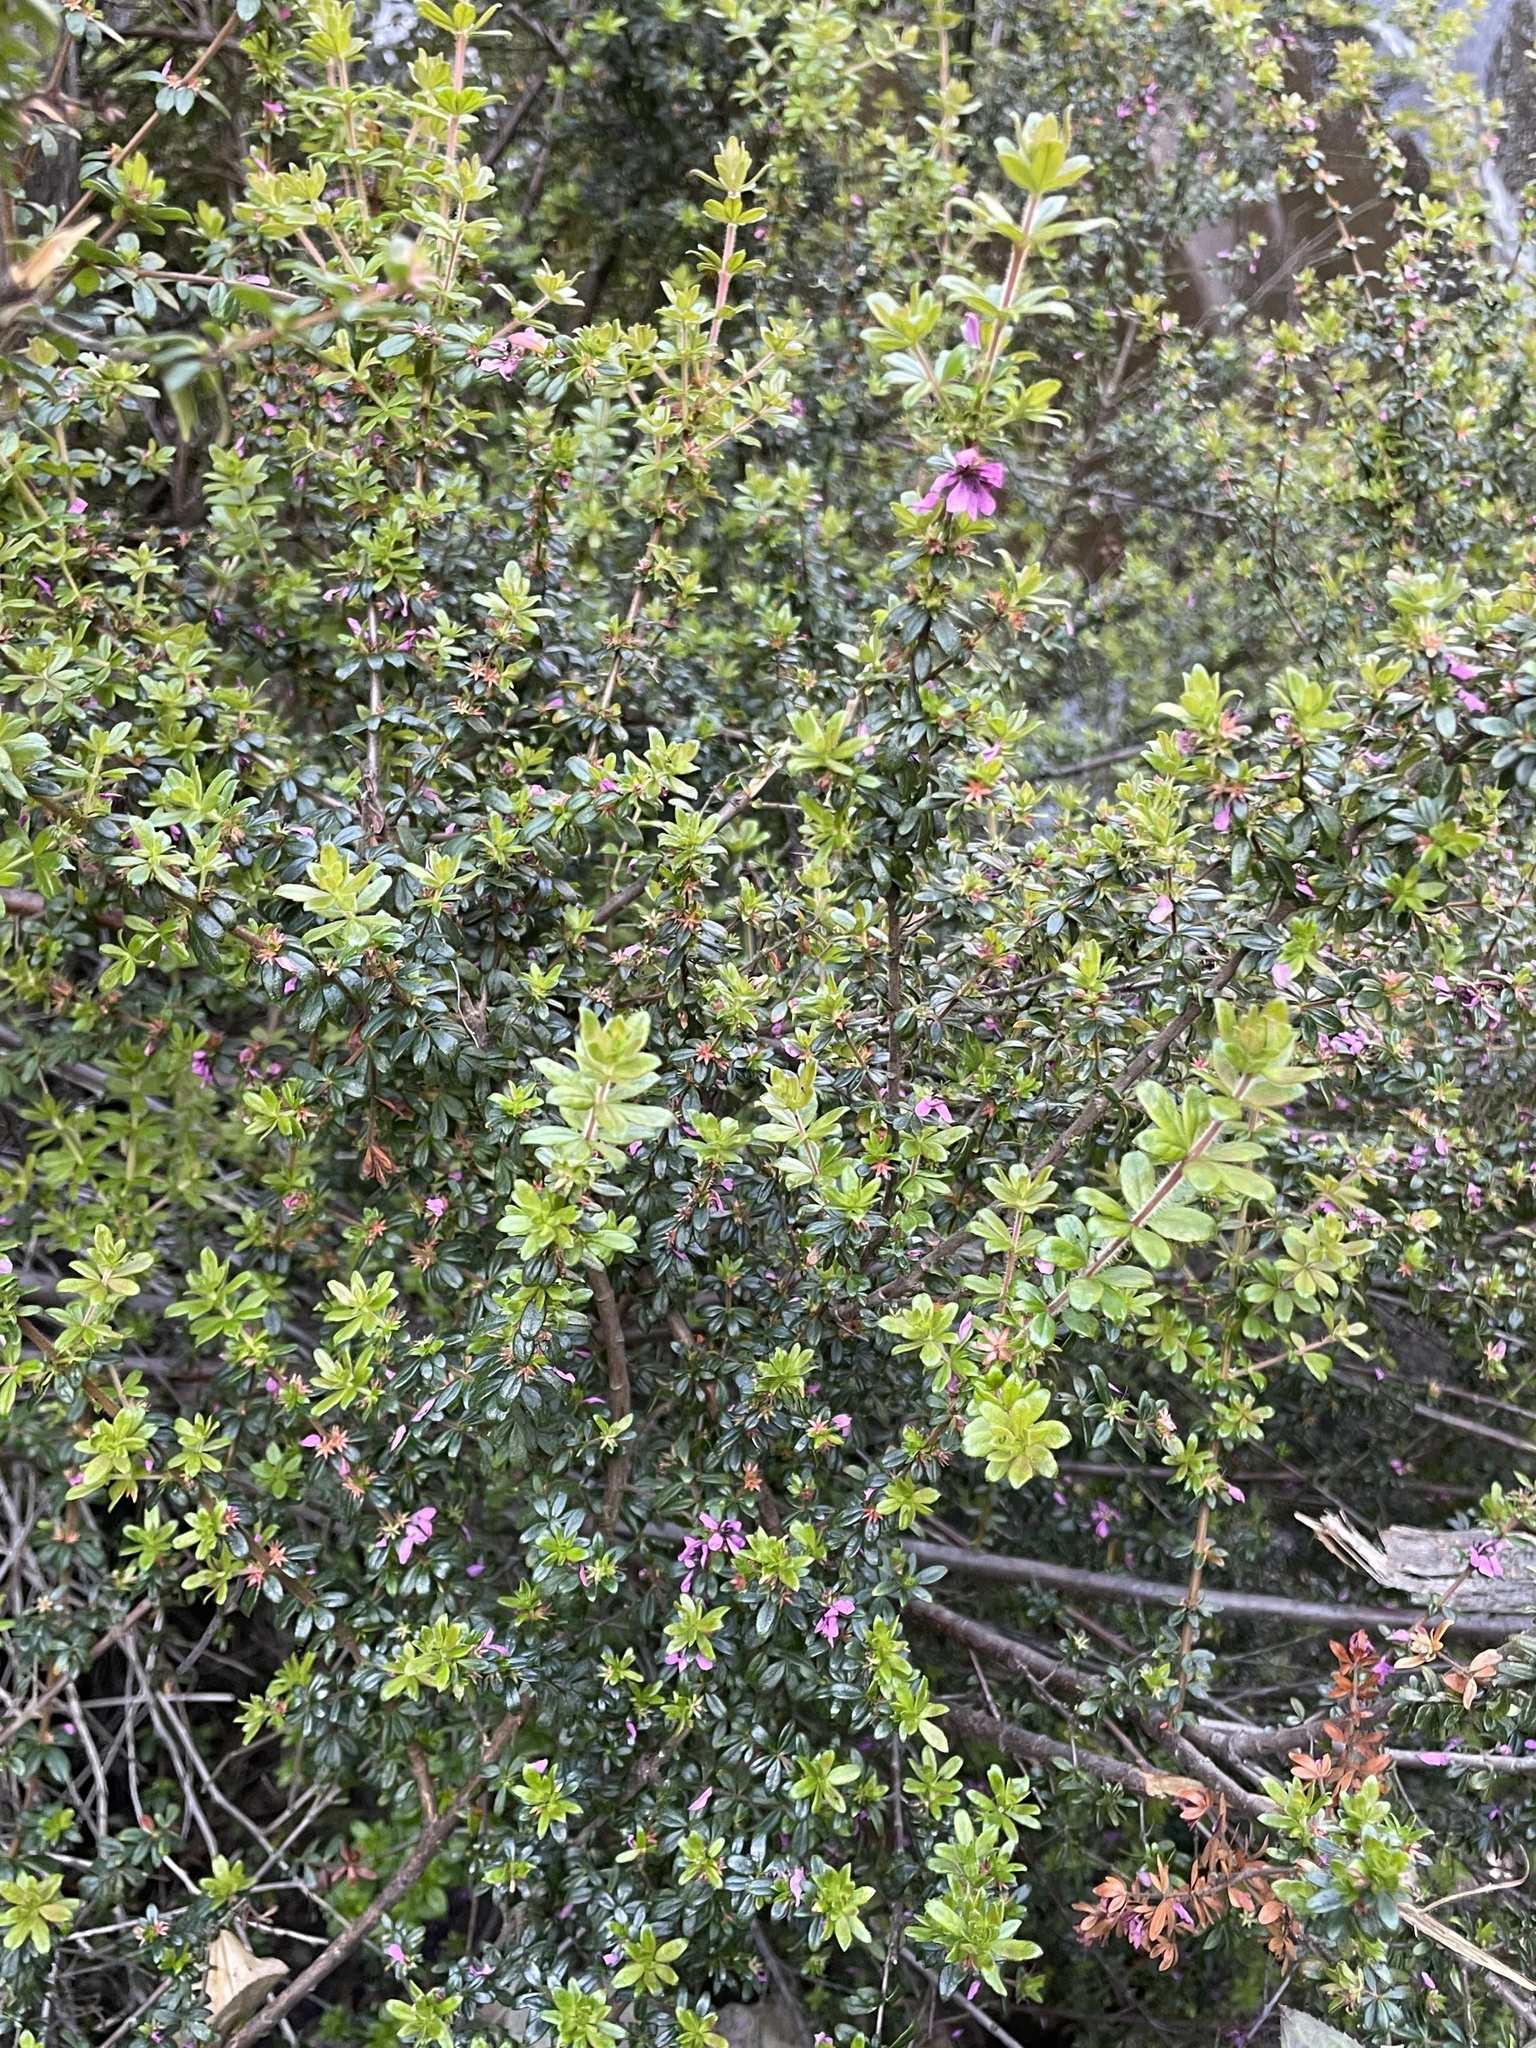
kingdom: Plantae
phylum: Tracheophyta
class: Magnoliopsida
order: Oxalidales
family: Cunoniaceae
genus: Bauera
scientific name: Bauera sessiliflora
